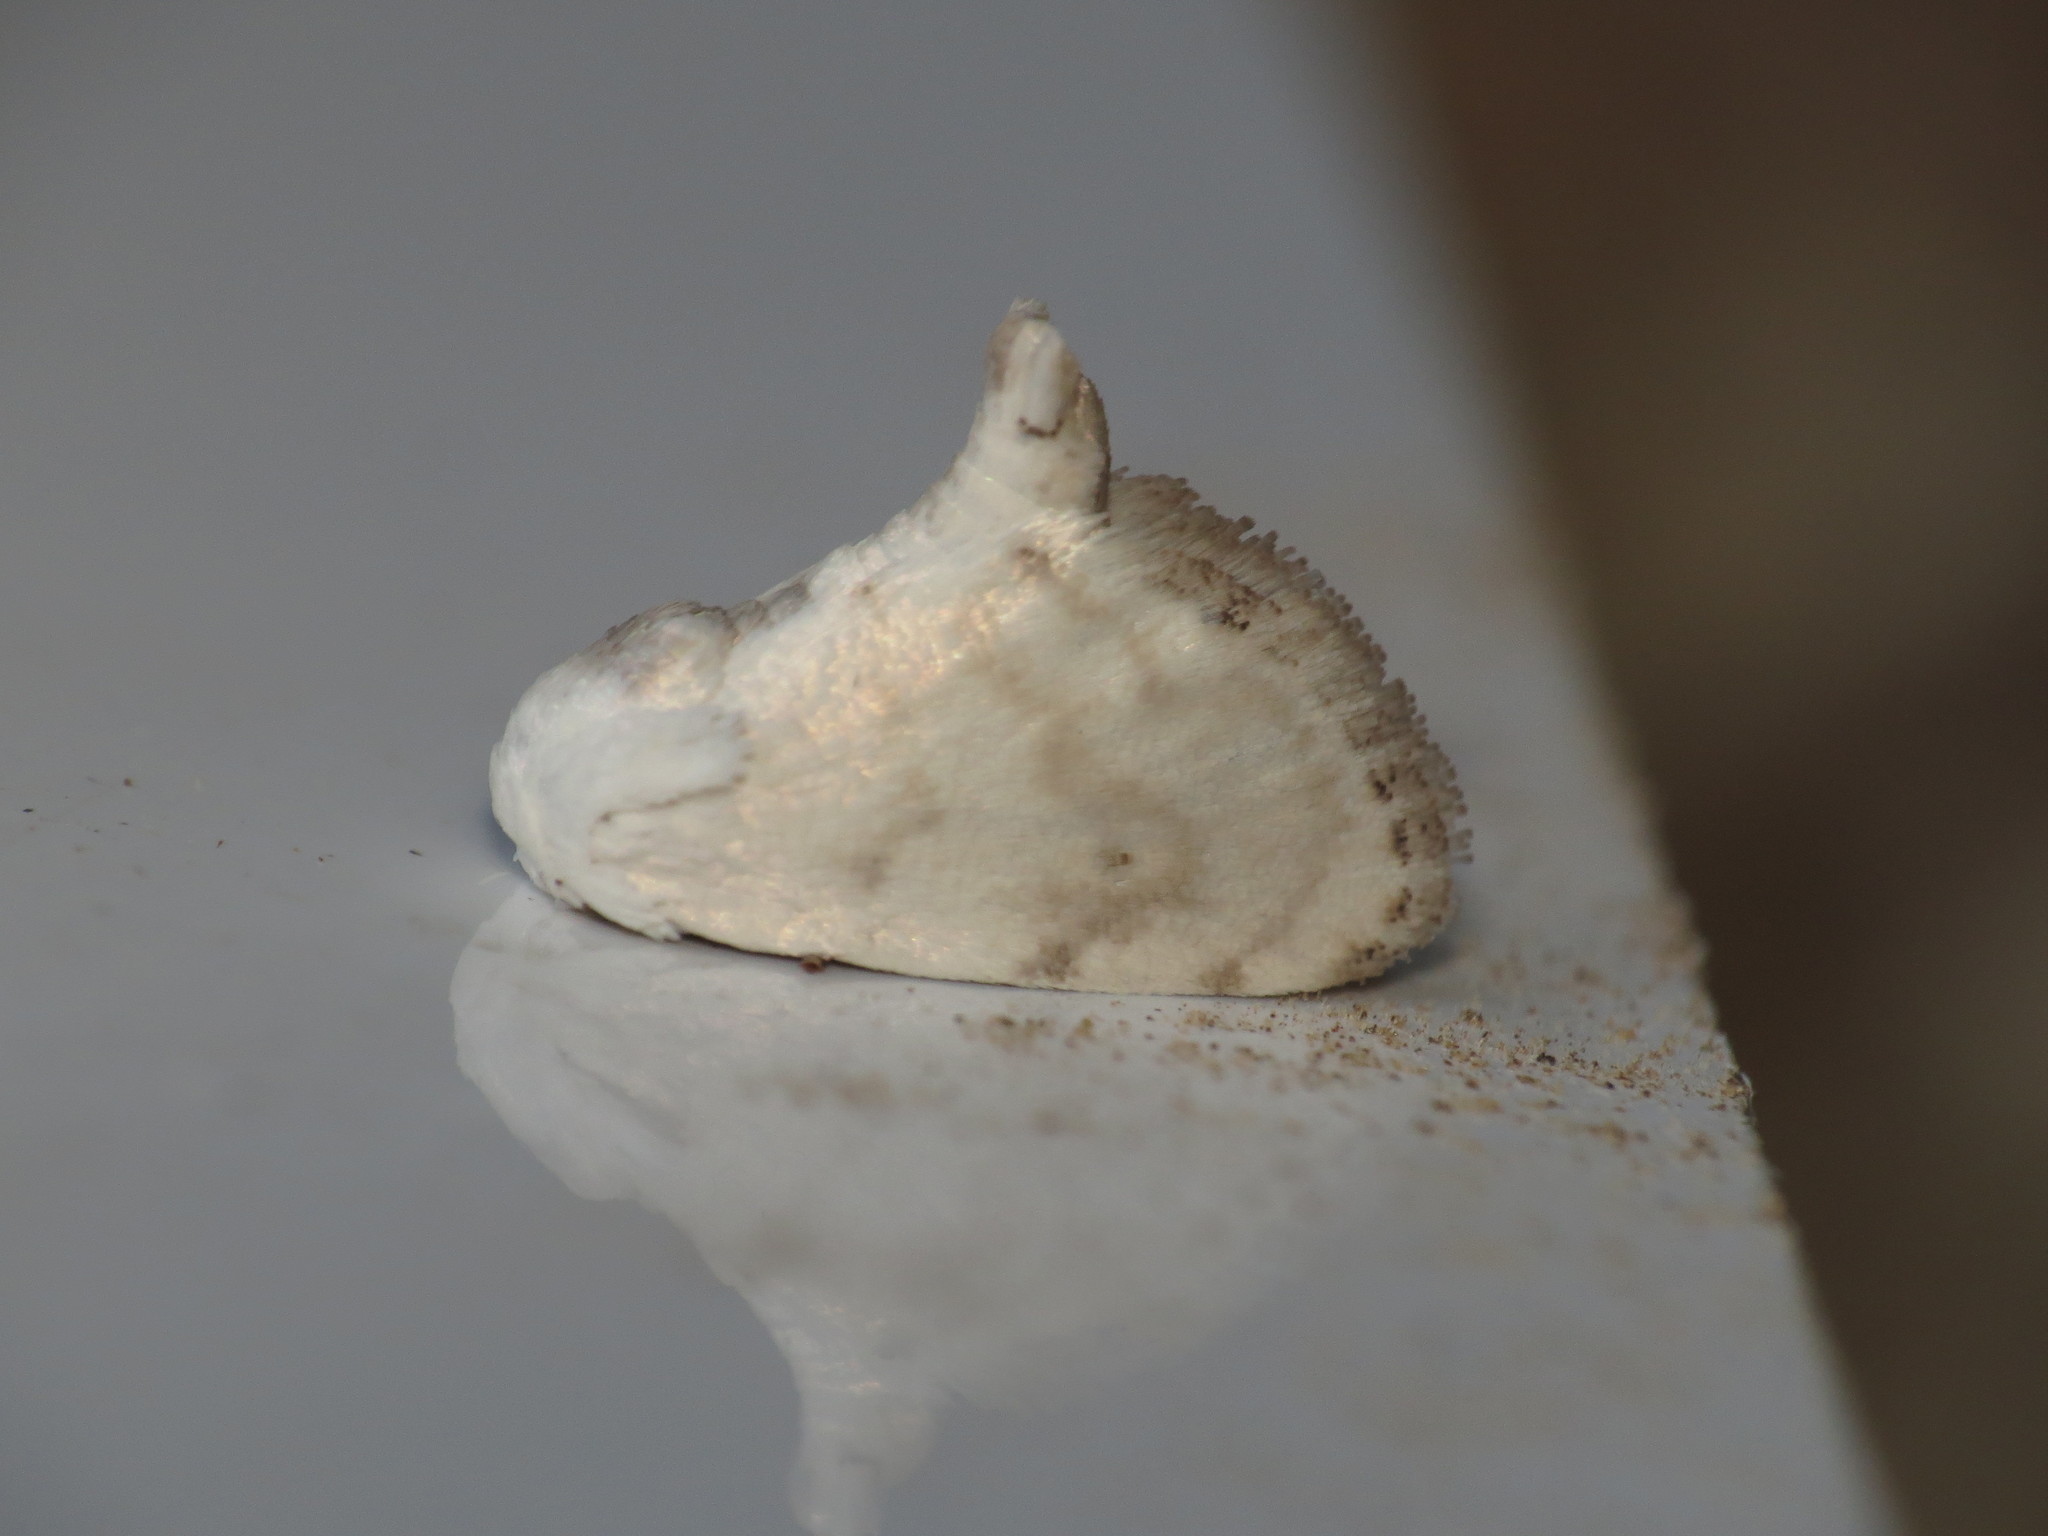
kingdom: Animalia
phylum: Arthropoda
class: Insecta
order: Lepidoptera
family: Crambidae
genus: Niphopyralis
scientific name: Niphopyralis chionesis
